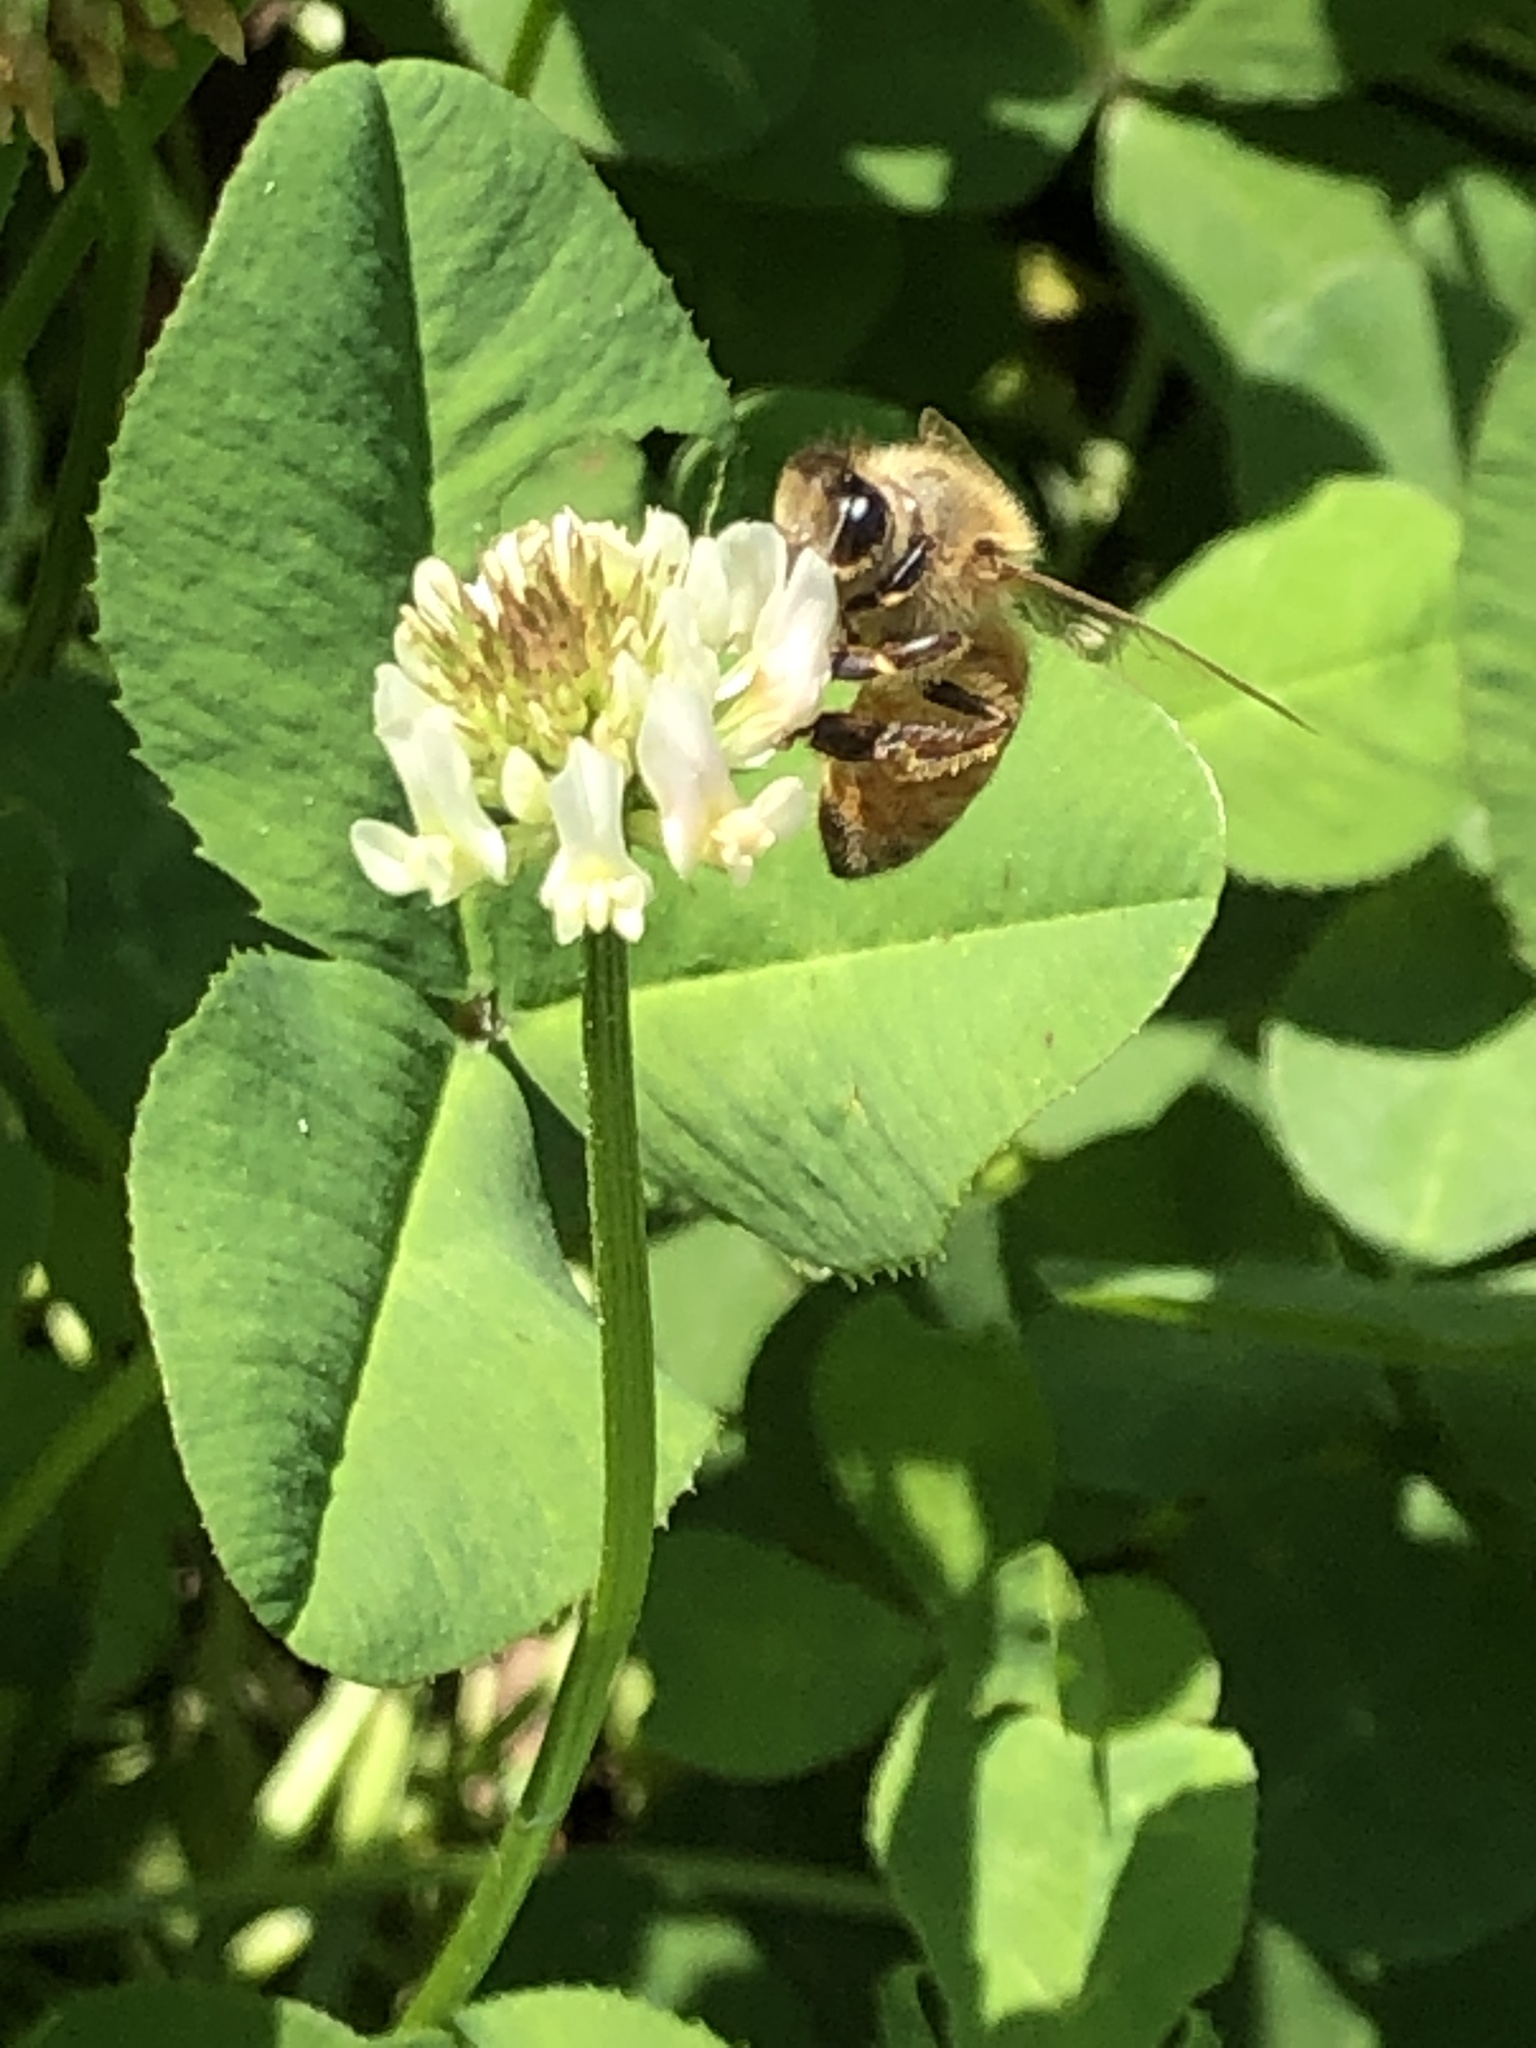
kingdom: Animalia
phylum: Arthropoda
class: Insecta
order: Hymenoptera
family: Apidae
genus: Apis
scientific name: Apis mellifera
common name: Honey bee
